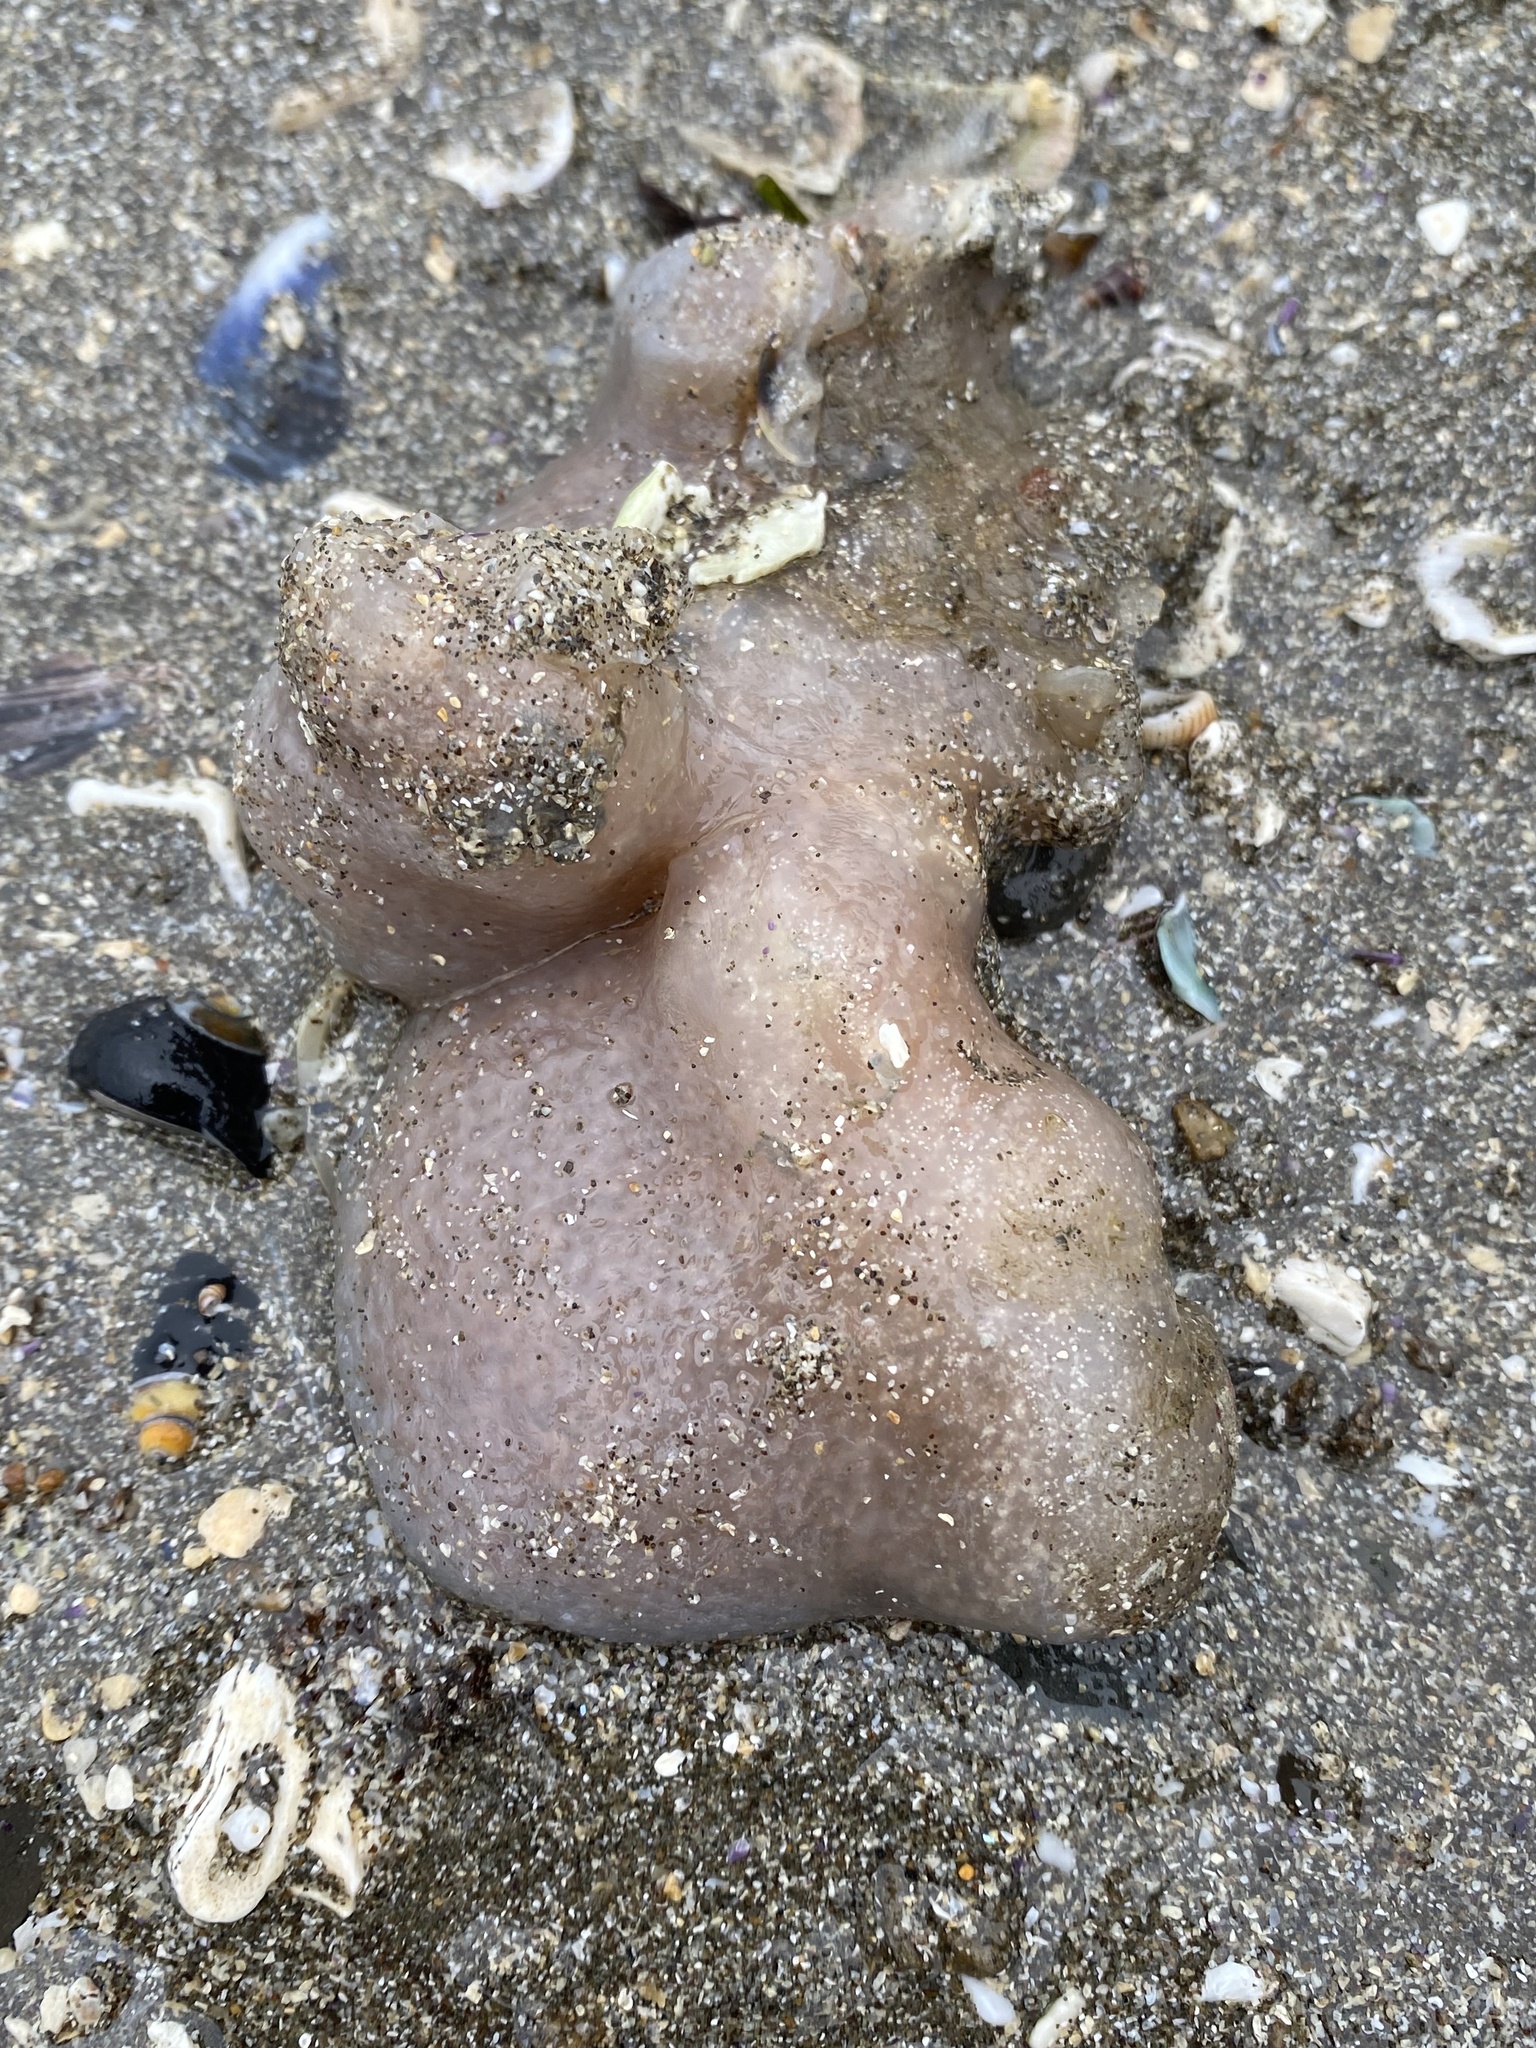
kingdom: Animalia
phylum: Chordata
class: Ascidiacea
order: Aplousobranchia
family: Polyclinidae
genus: Aplidium
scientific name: Aplidium californicum
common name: Sea pork
